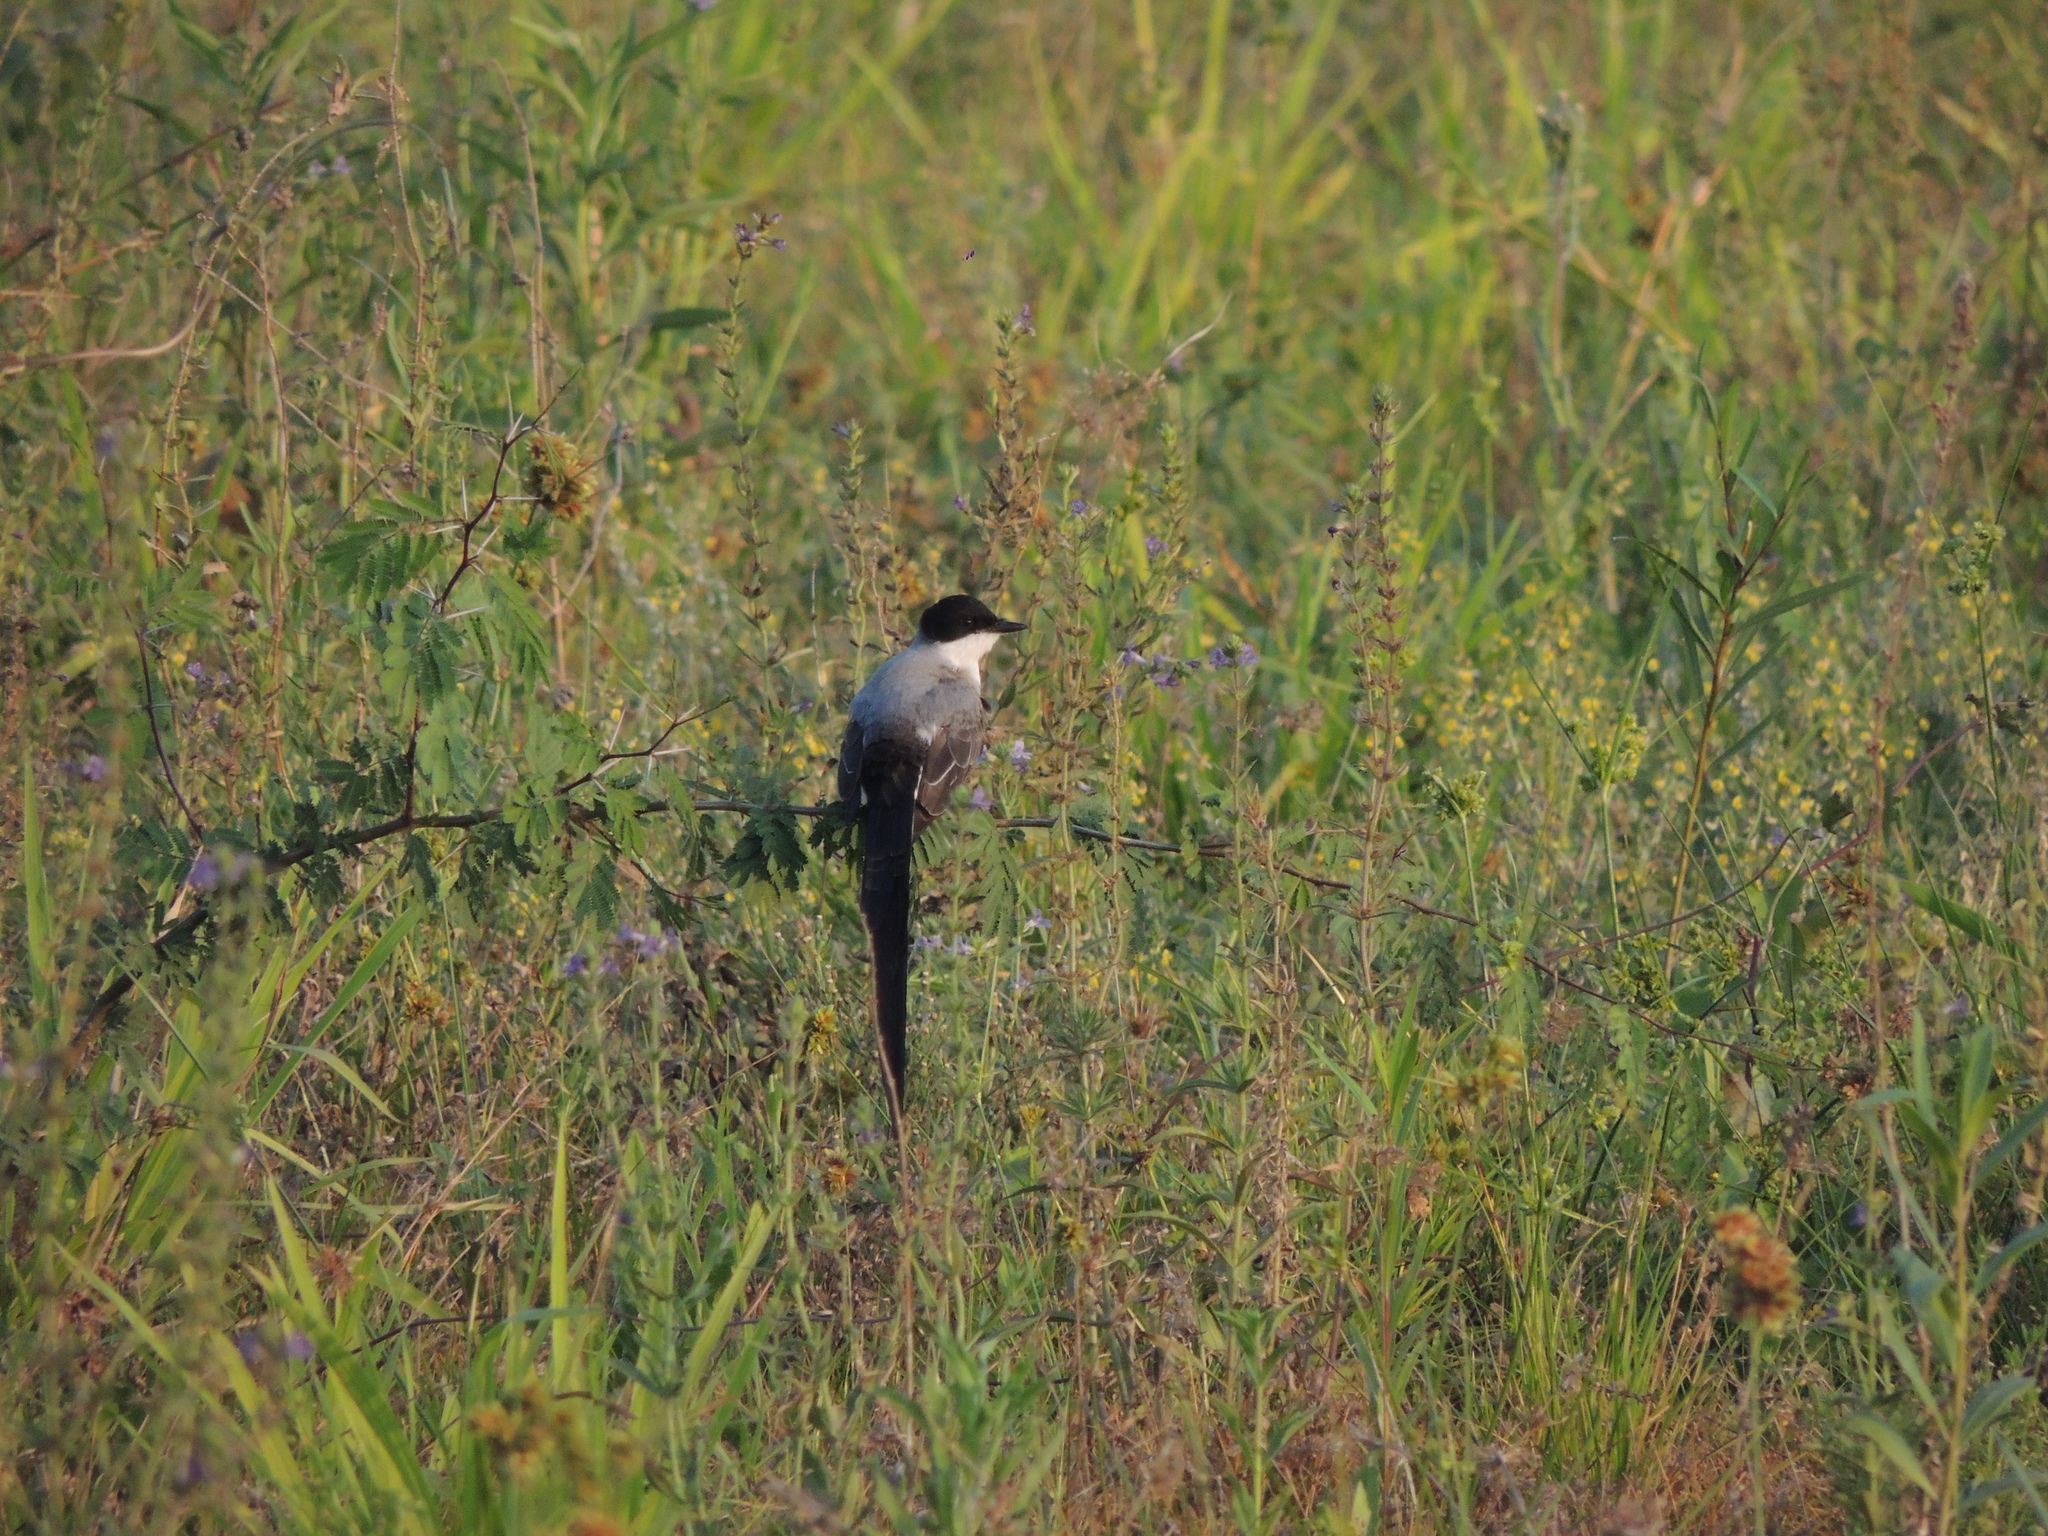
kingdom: Animalia
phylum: Chordata
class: Aves
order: Passeriformes
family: Tyrannidae
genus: Tyrannus
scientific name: Tyrannus savana
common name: Fork-tailed flycatcher
